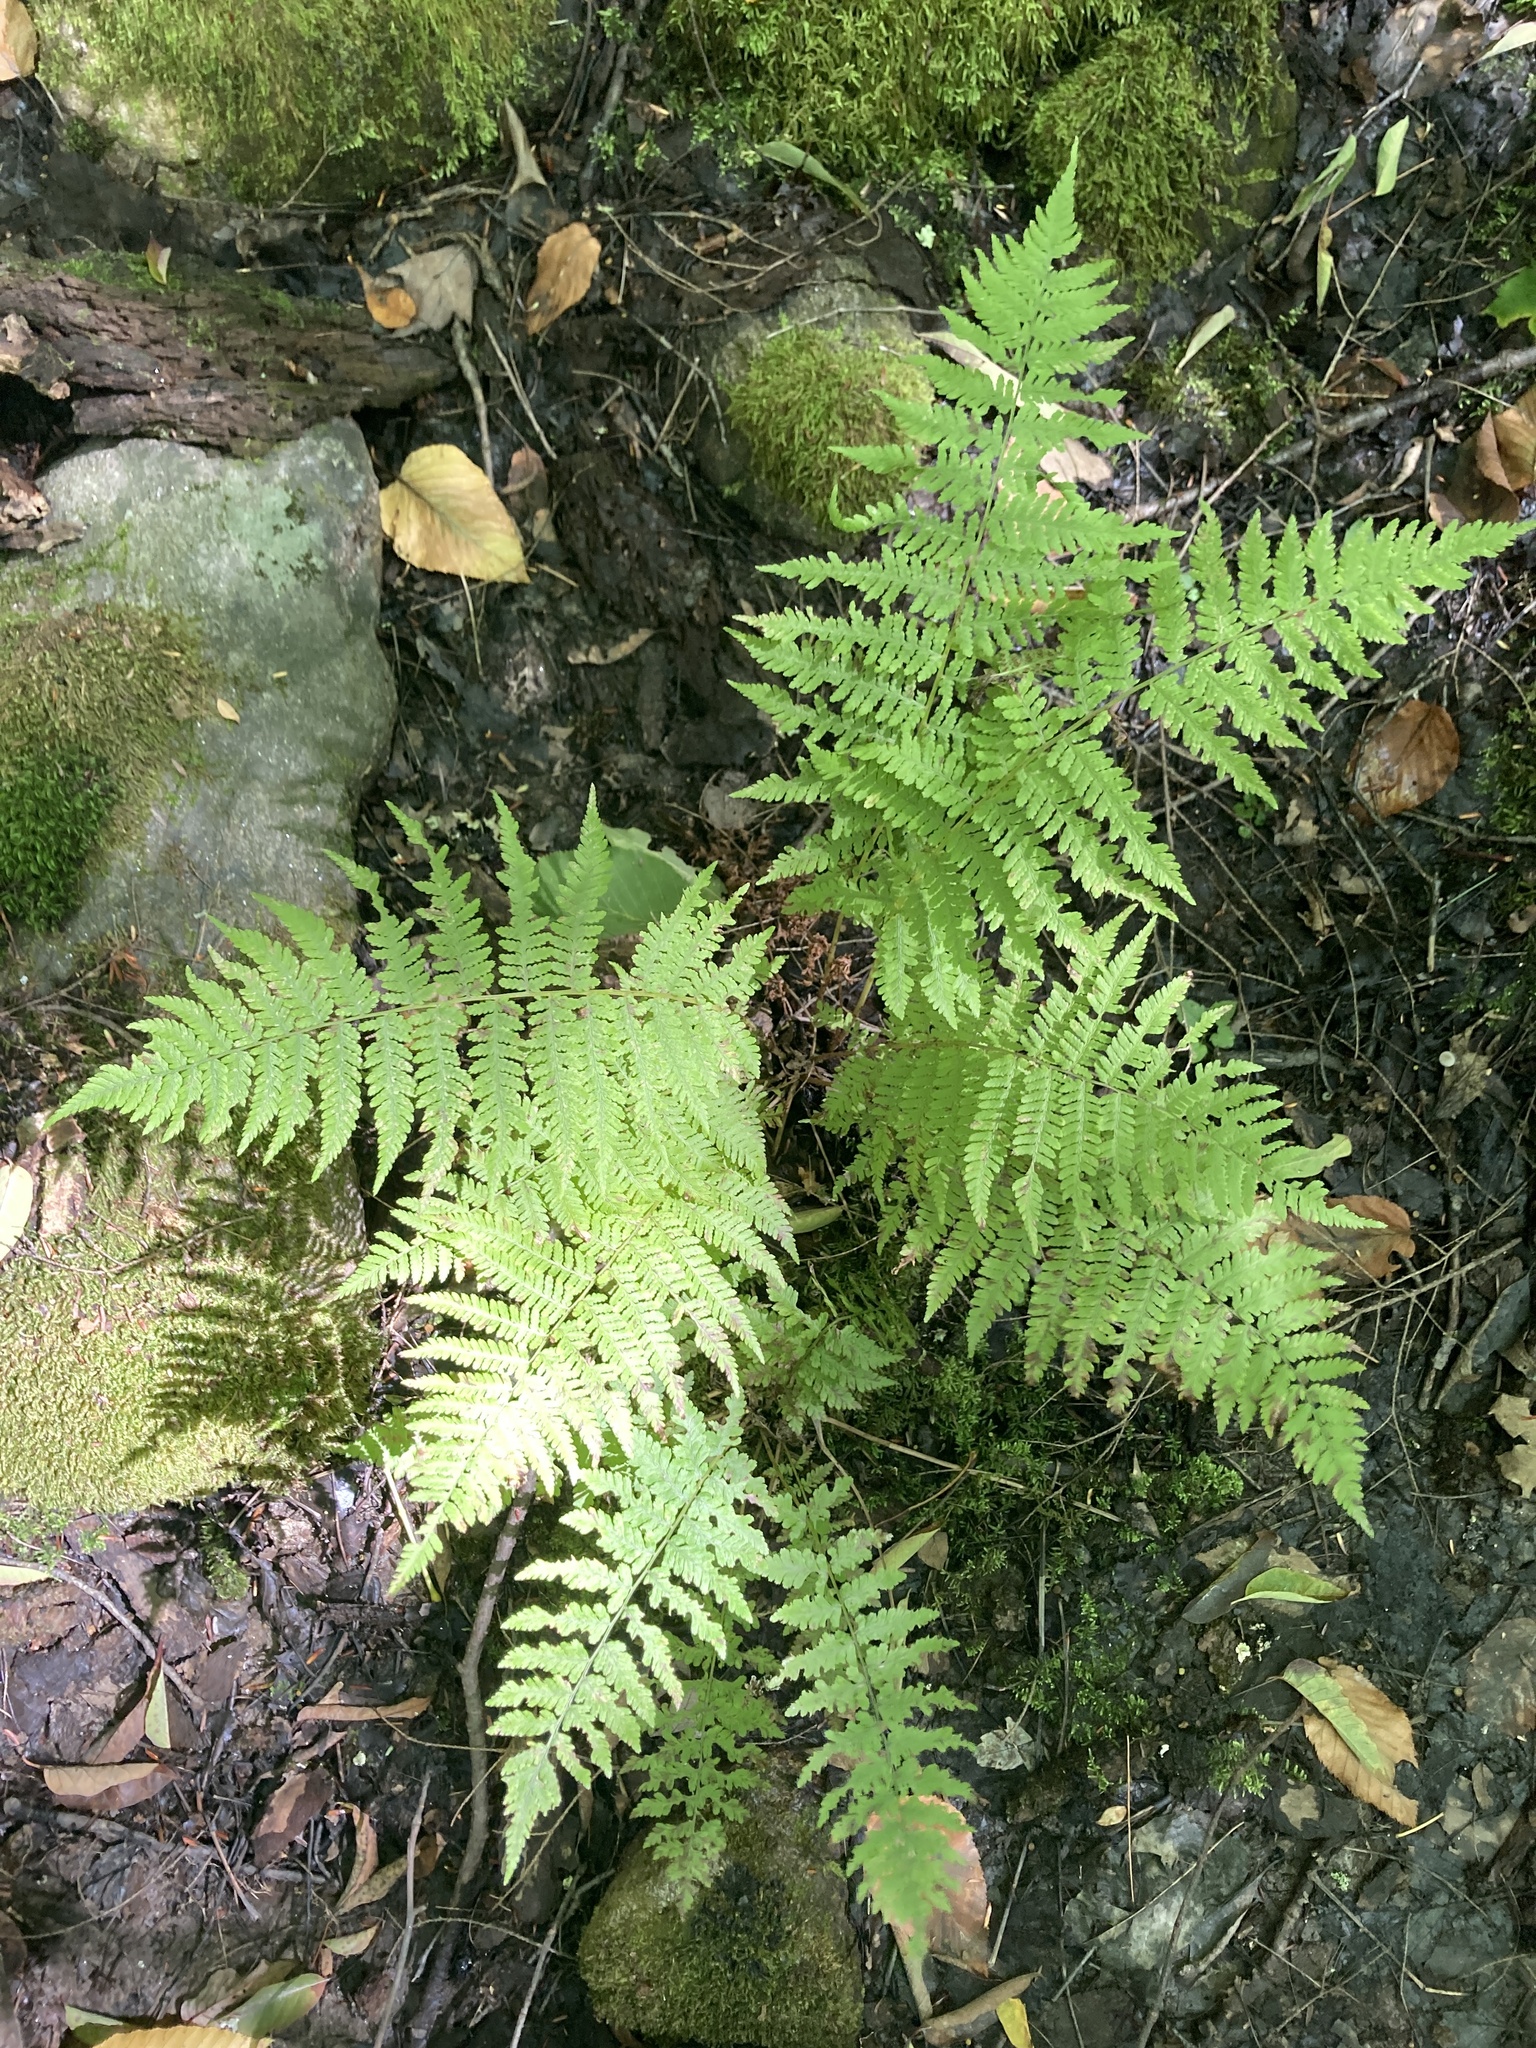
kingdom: Plantae
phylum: Tracheophyta
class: Polypodiopsida
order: Polypodiales
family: Athyriaceae
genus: Athyrium
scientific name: Athyrium angustum
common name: Northern lady fern
